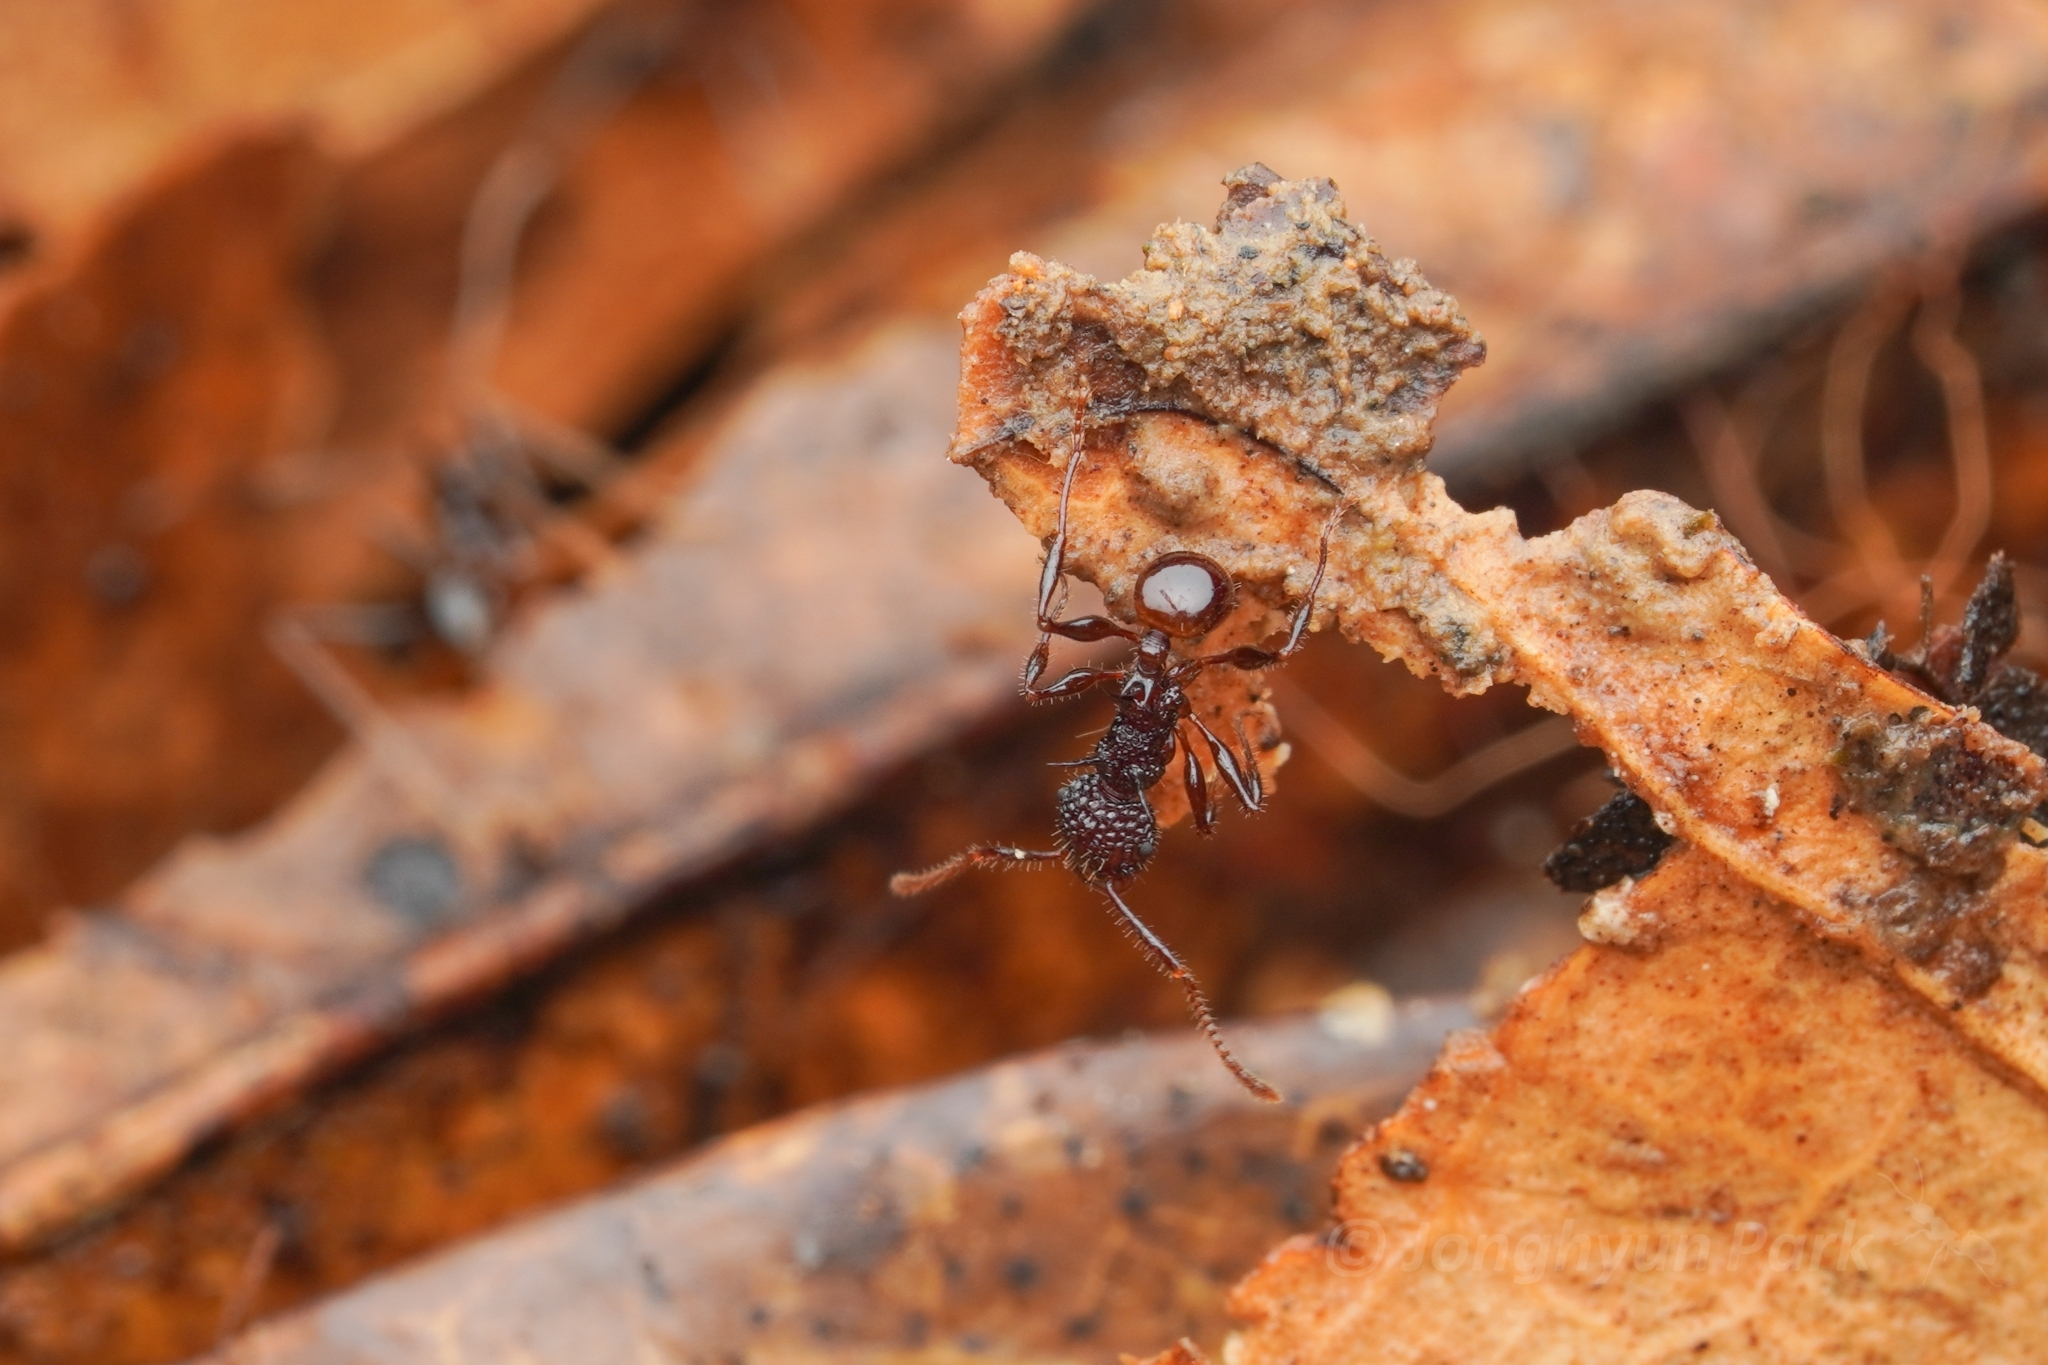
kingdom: Animalia
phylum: Arthropoda
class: Insecta
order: Hymenoptera
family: Formicidae
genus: Acanthomyrmex
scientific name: Acanthomyrmex ferox
